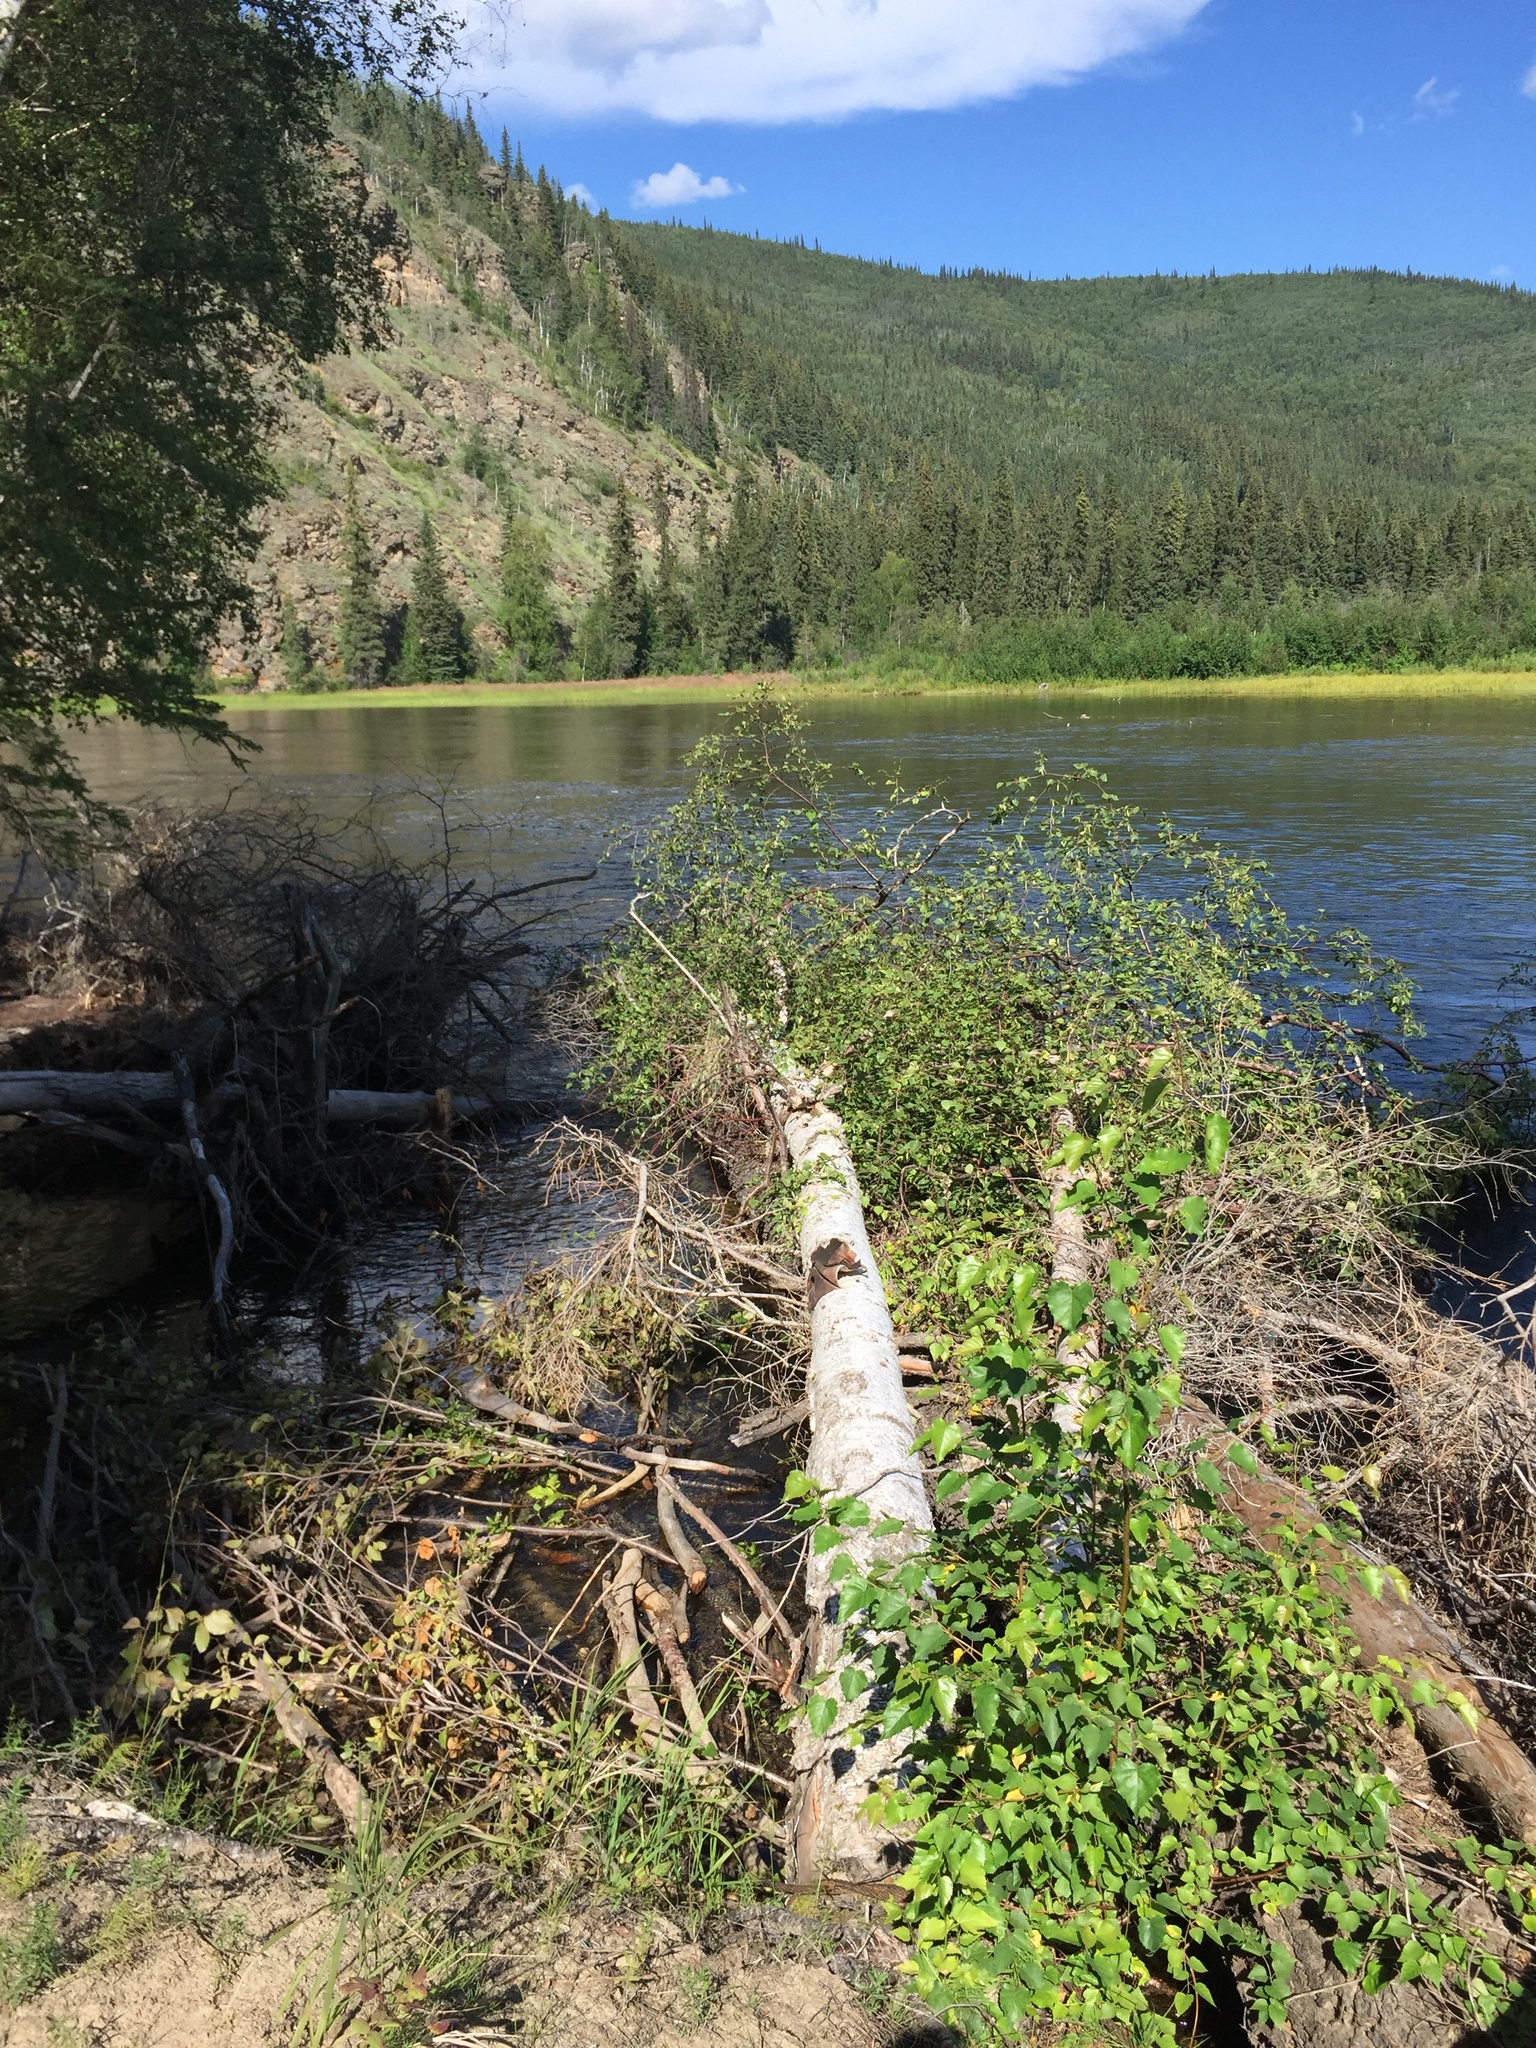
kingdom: Plantae
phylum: Tracheophyta
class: Magnoliopsida
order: Fagales
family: Betulaceae
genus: Betula
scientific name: Betula pendula
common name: Silver birch
